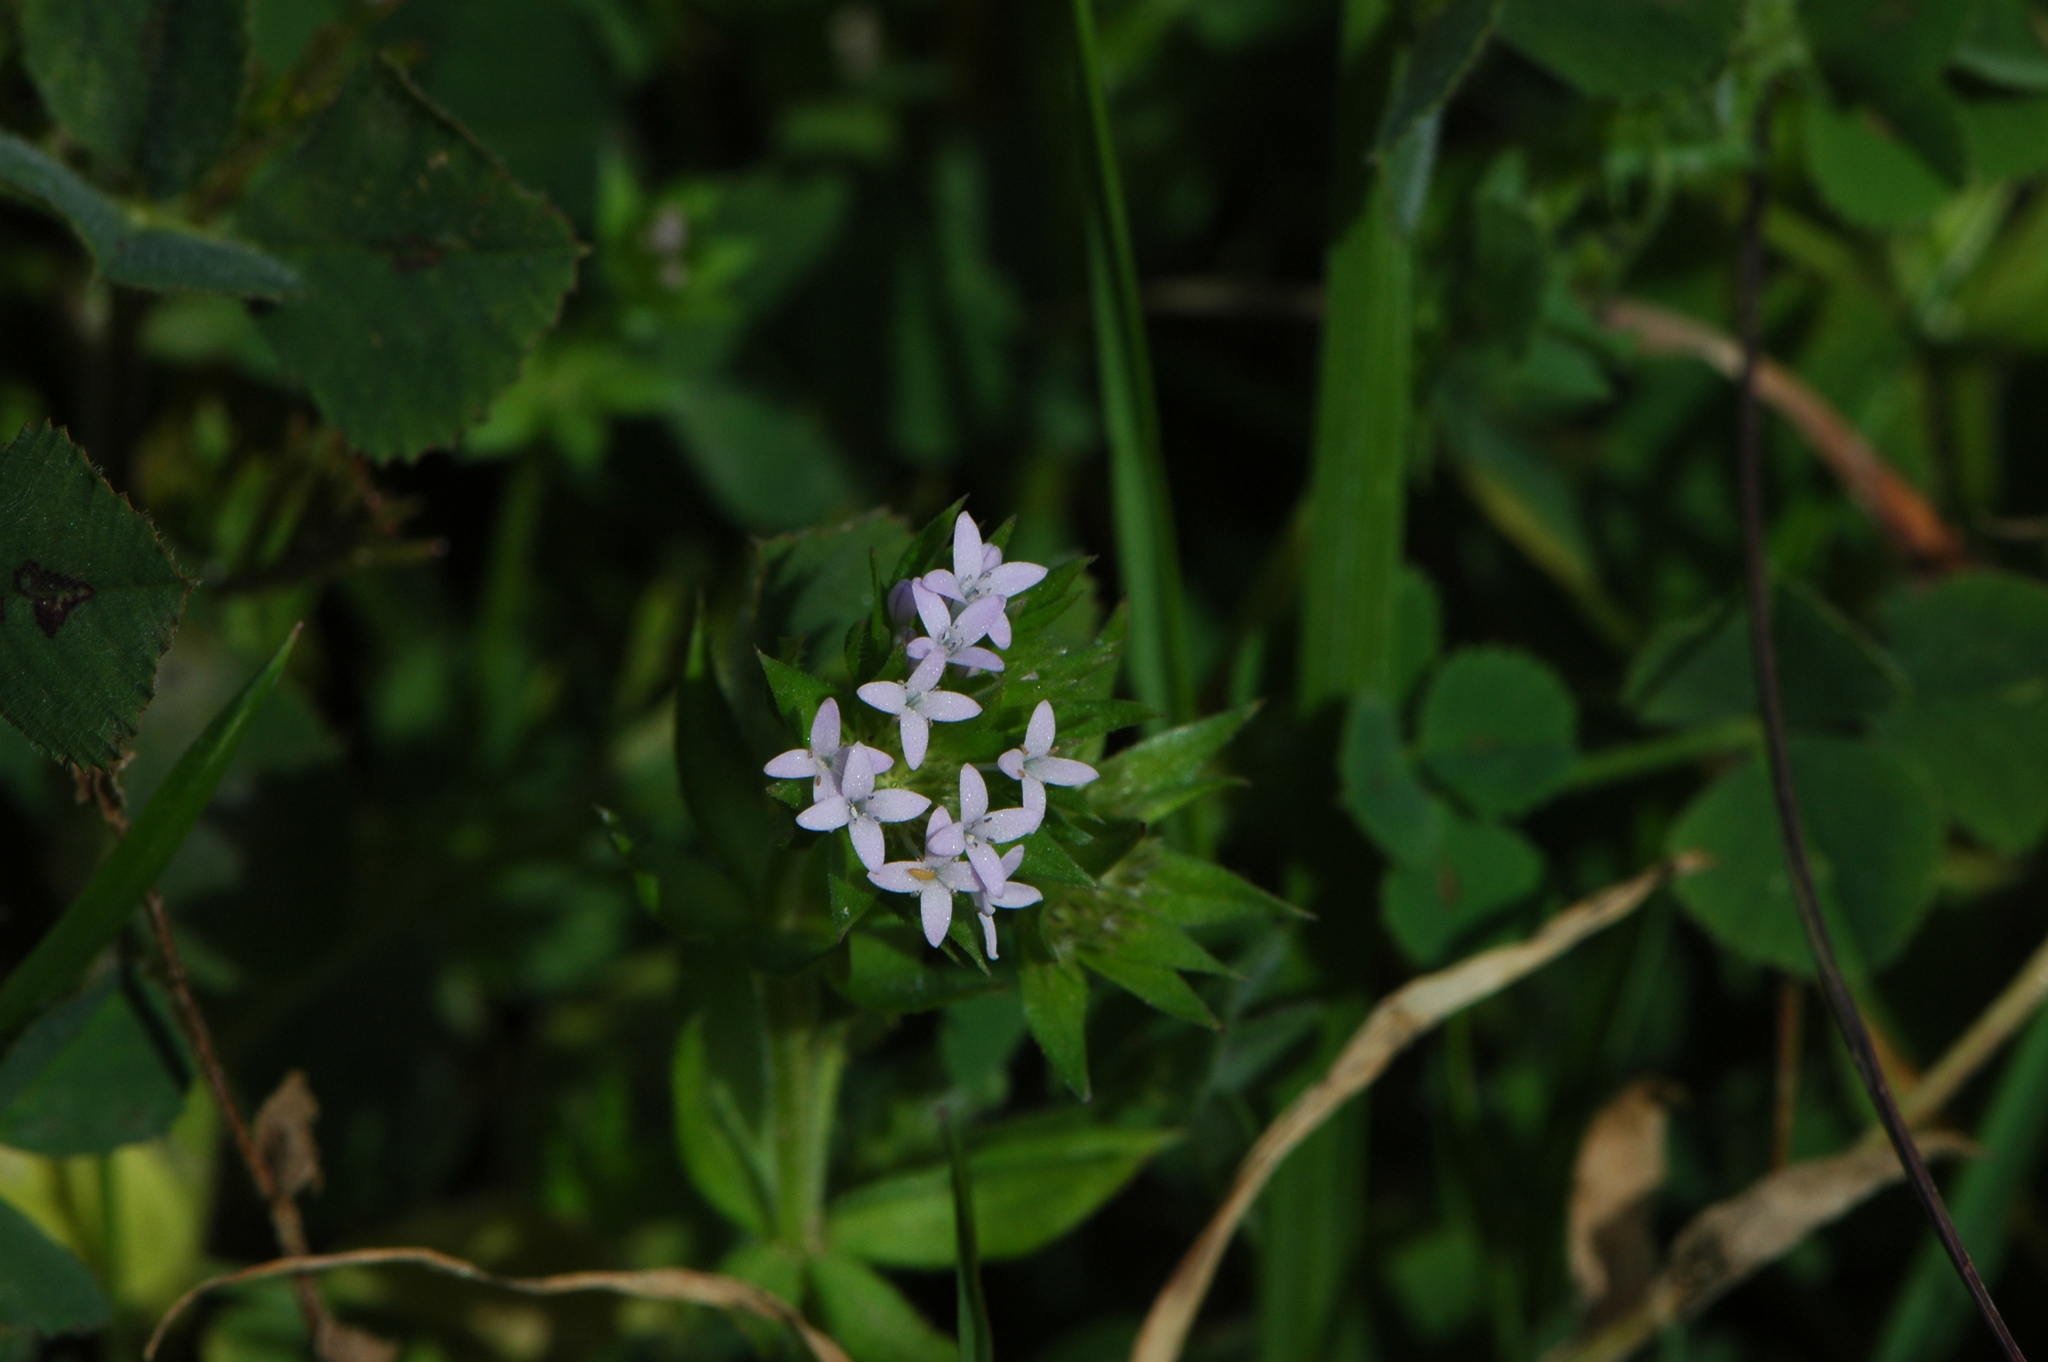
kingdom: Plantae
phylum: Tracheophyta
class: Magnoliopsida
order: Gentianales
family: Rubiaceae
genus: Sherardia
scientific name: Sherardia arvensis
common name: Field madder
